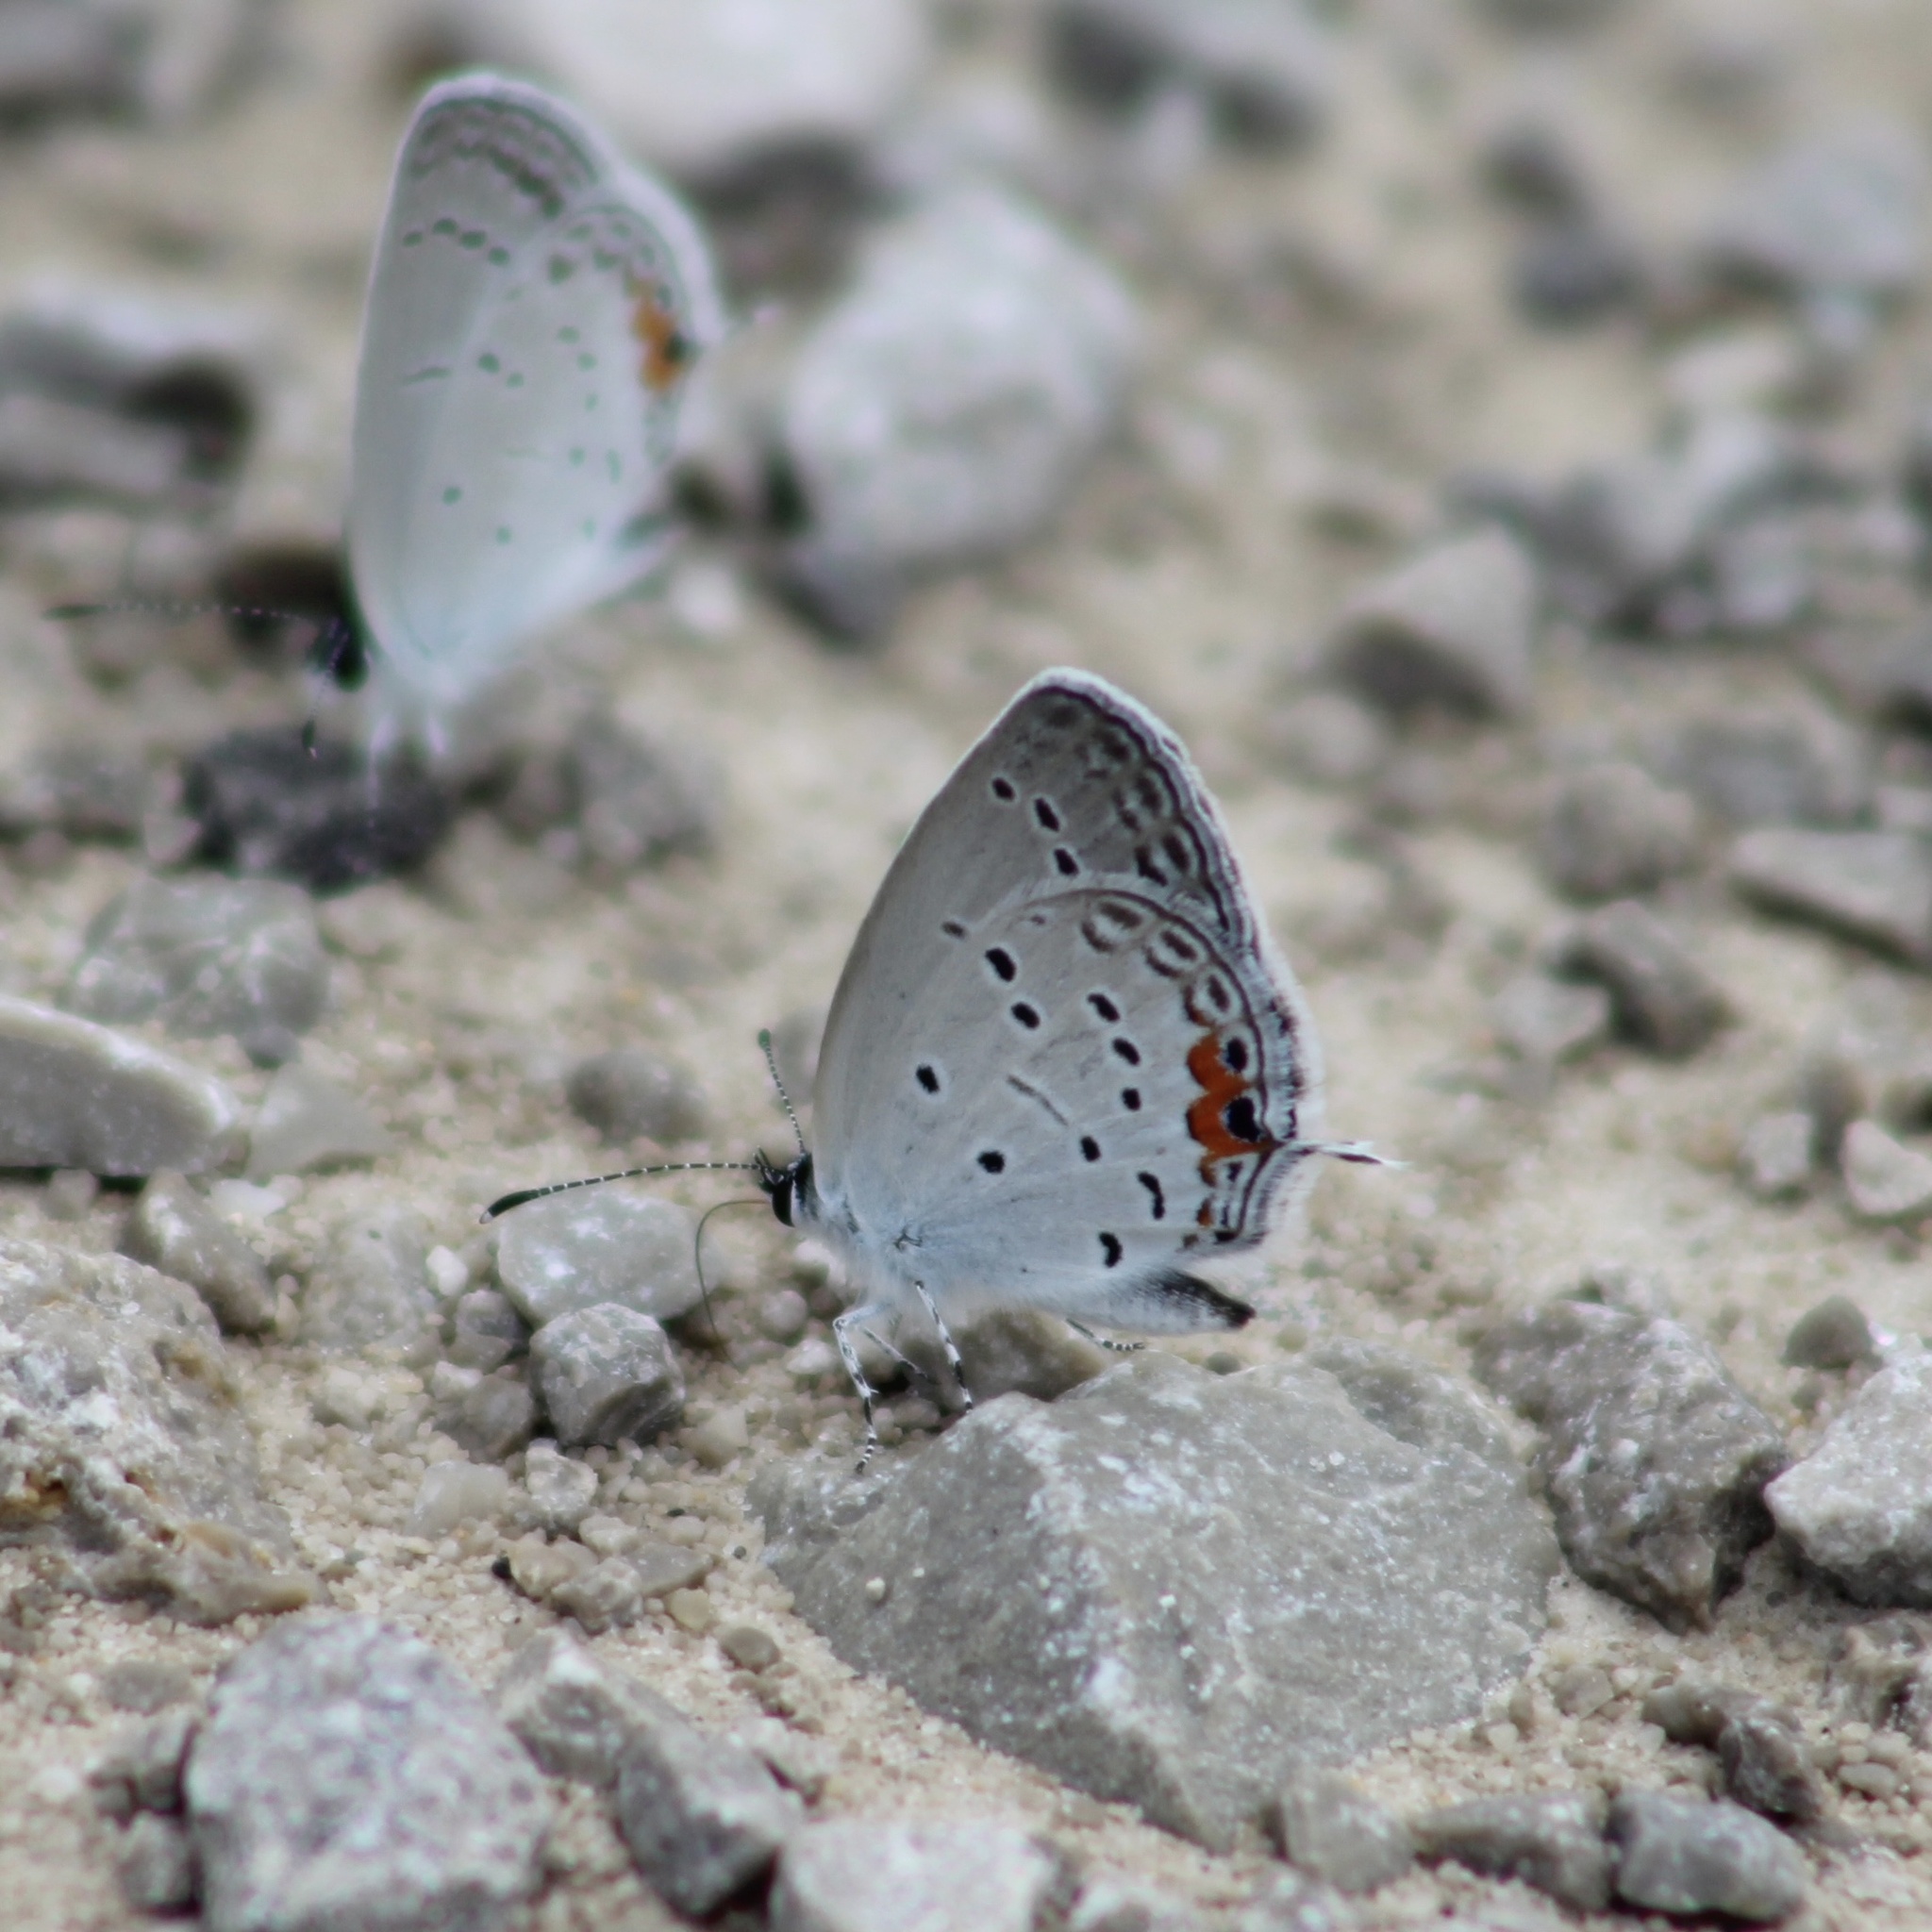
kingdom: Animalia
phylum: Arthropoda
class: Insecta
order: Lepidoptera
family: Lycaenidae
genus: Elkalyce
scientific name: Elkalyce comyntas
